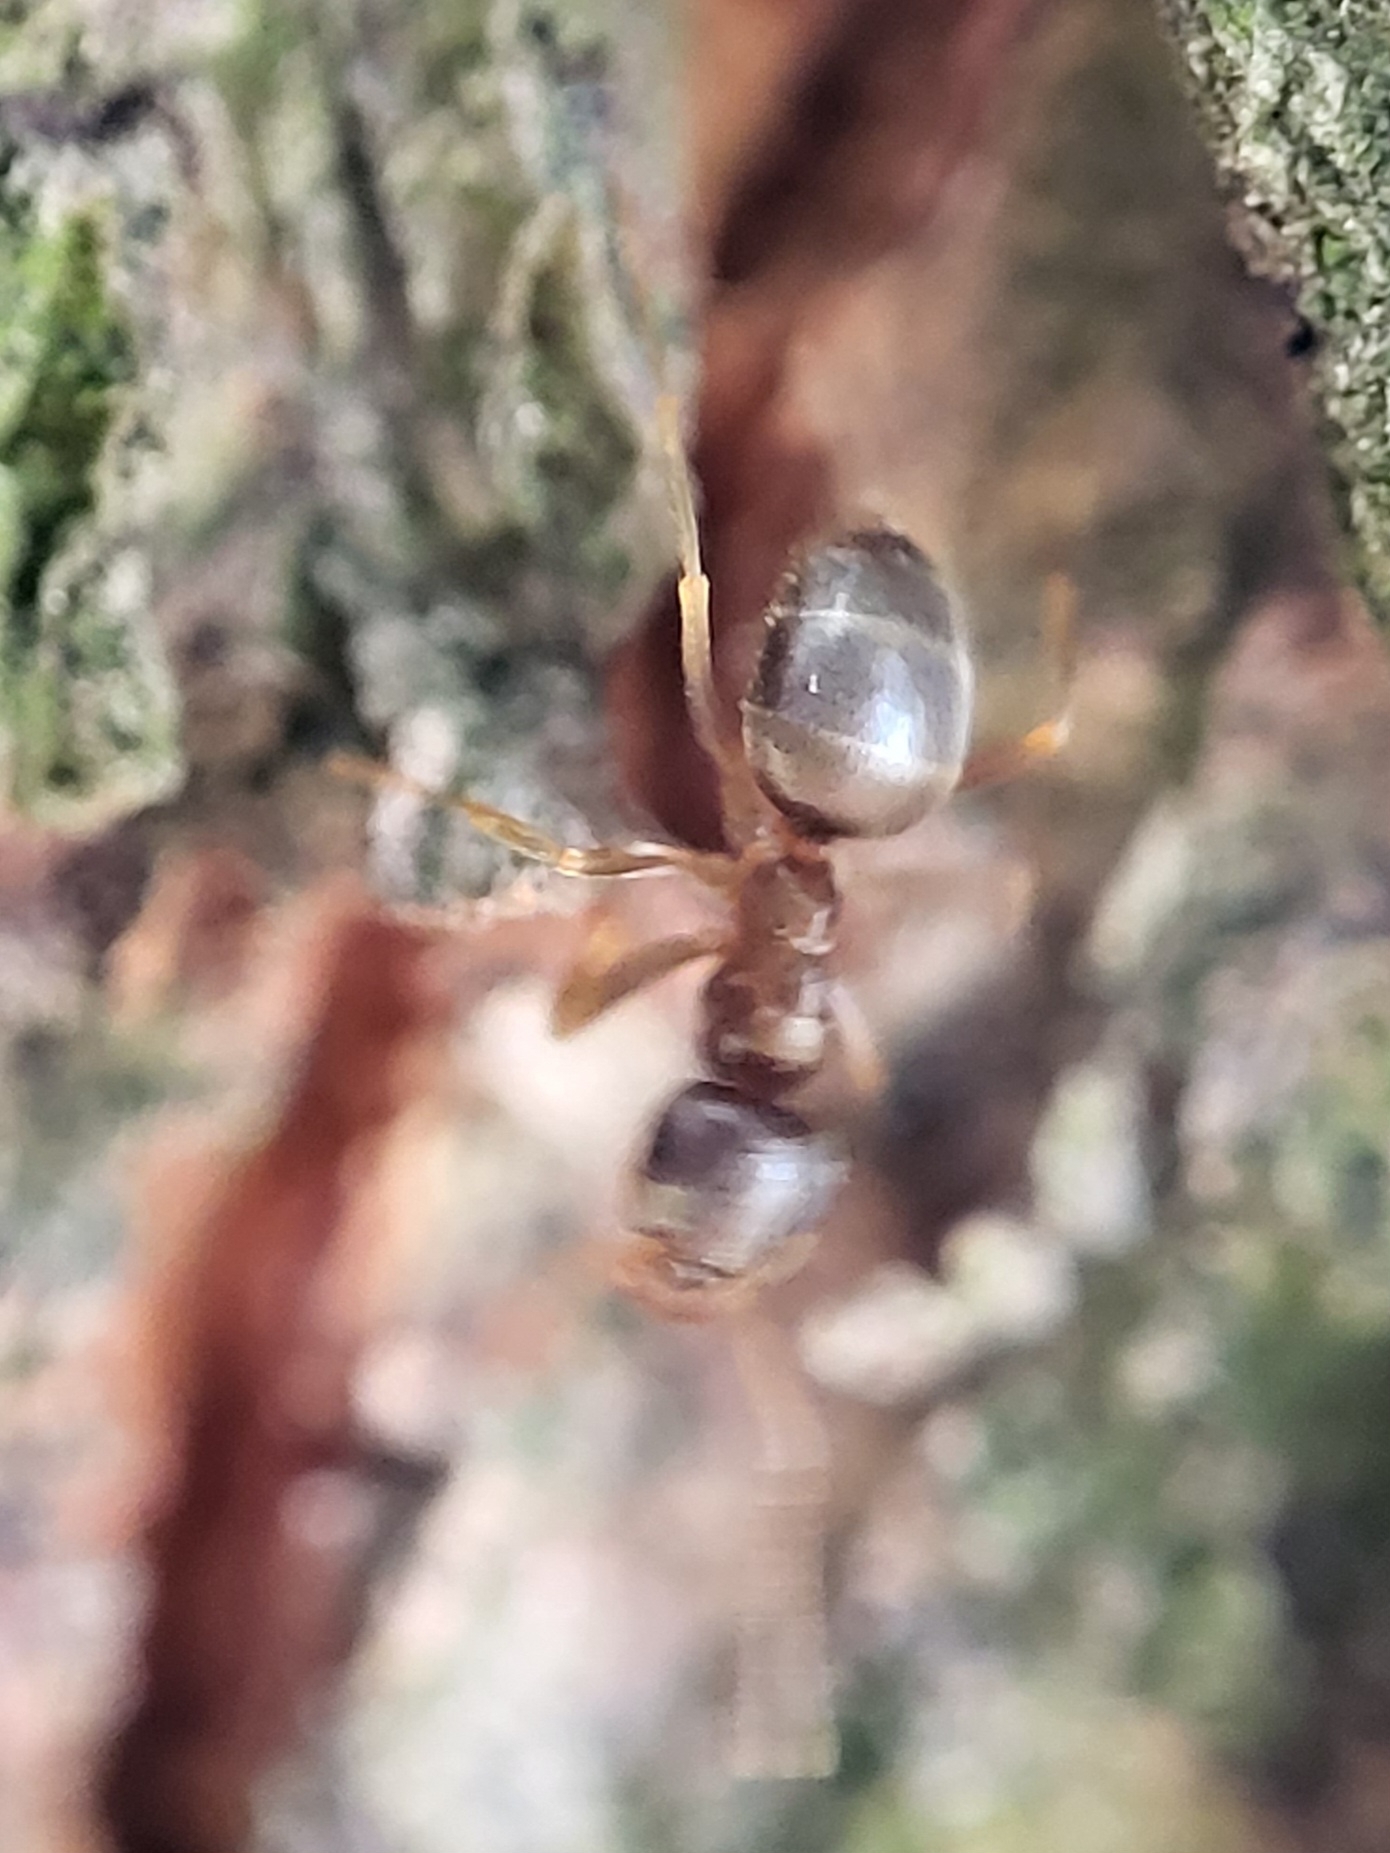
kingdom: Animalia
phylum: Arthropoda
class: Insecta
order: Hymenoptera
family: Formicidae
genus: Lasius
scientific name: Lasius neoniger
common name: Turfgrass ant
